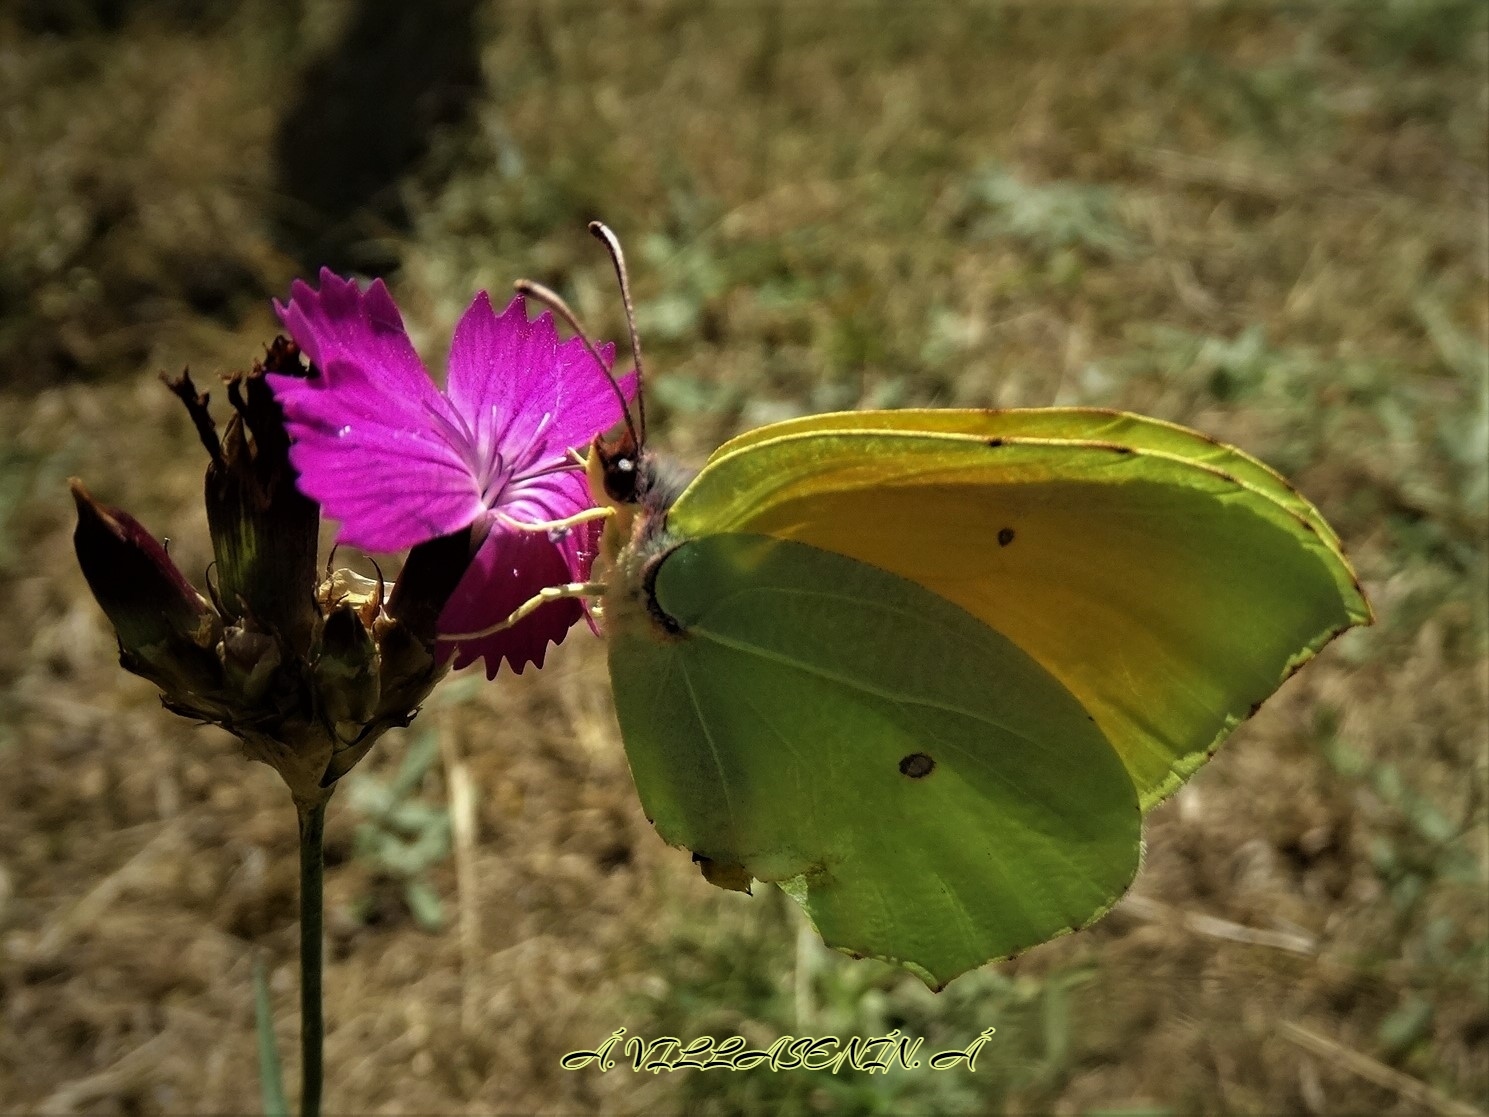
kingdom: Animalia
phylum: Arthropoda
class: Insecta
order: Lepidoptera
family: Pieridae
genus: Gonepteryx
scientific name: Gonepteryx cleopatra
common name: Cleopatra
